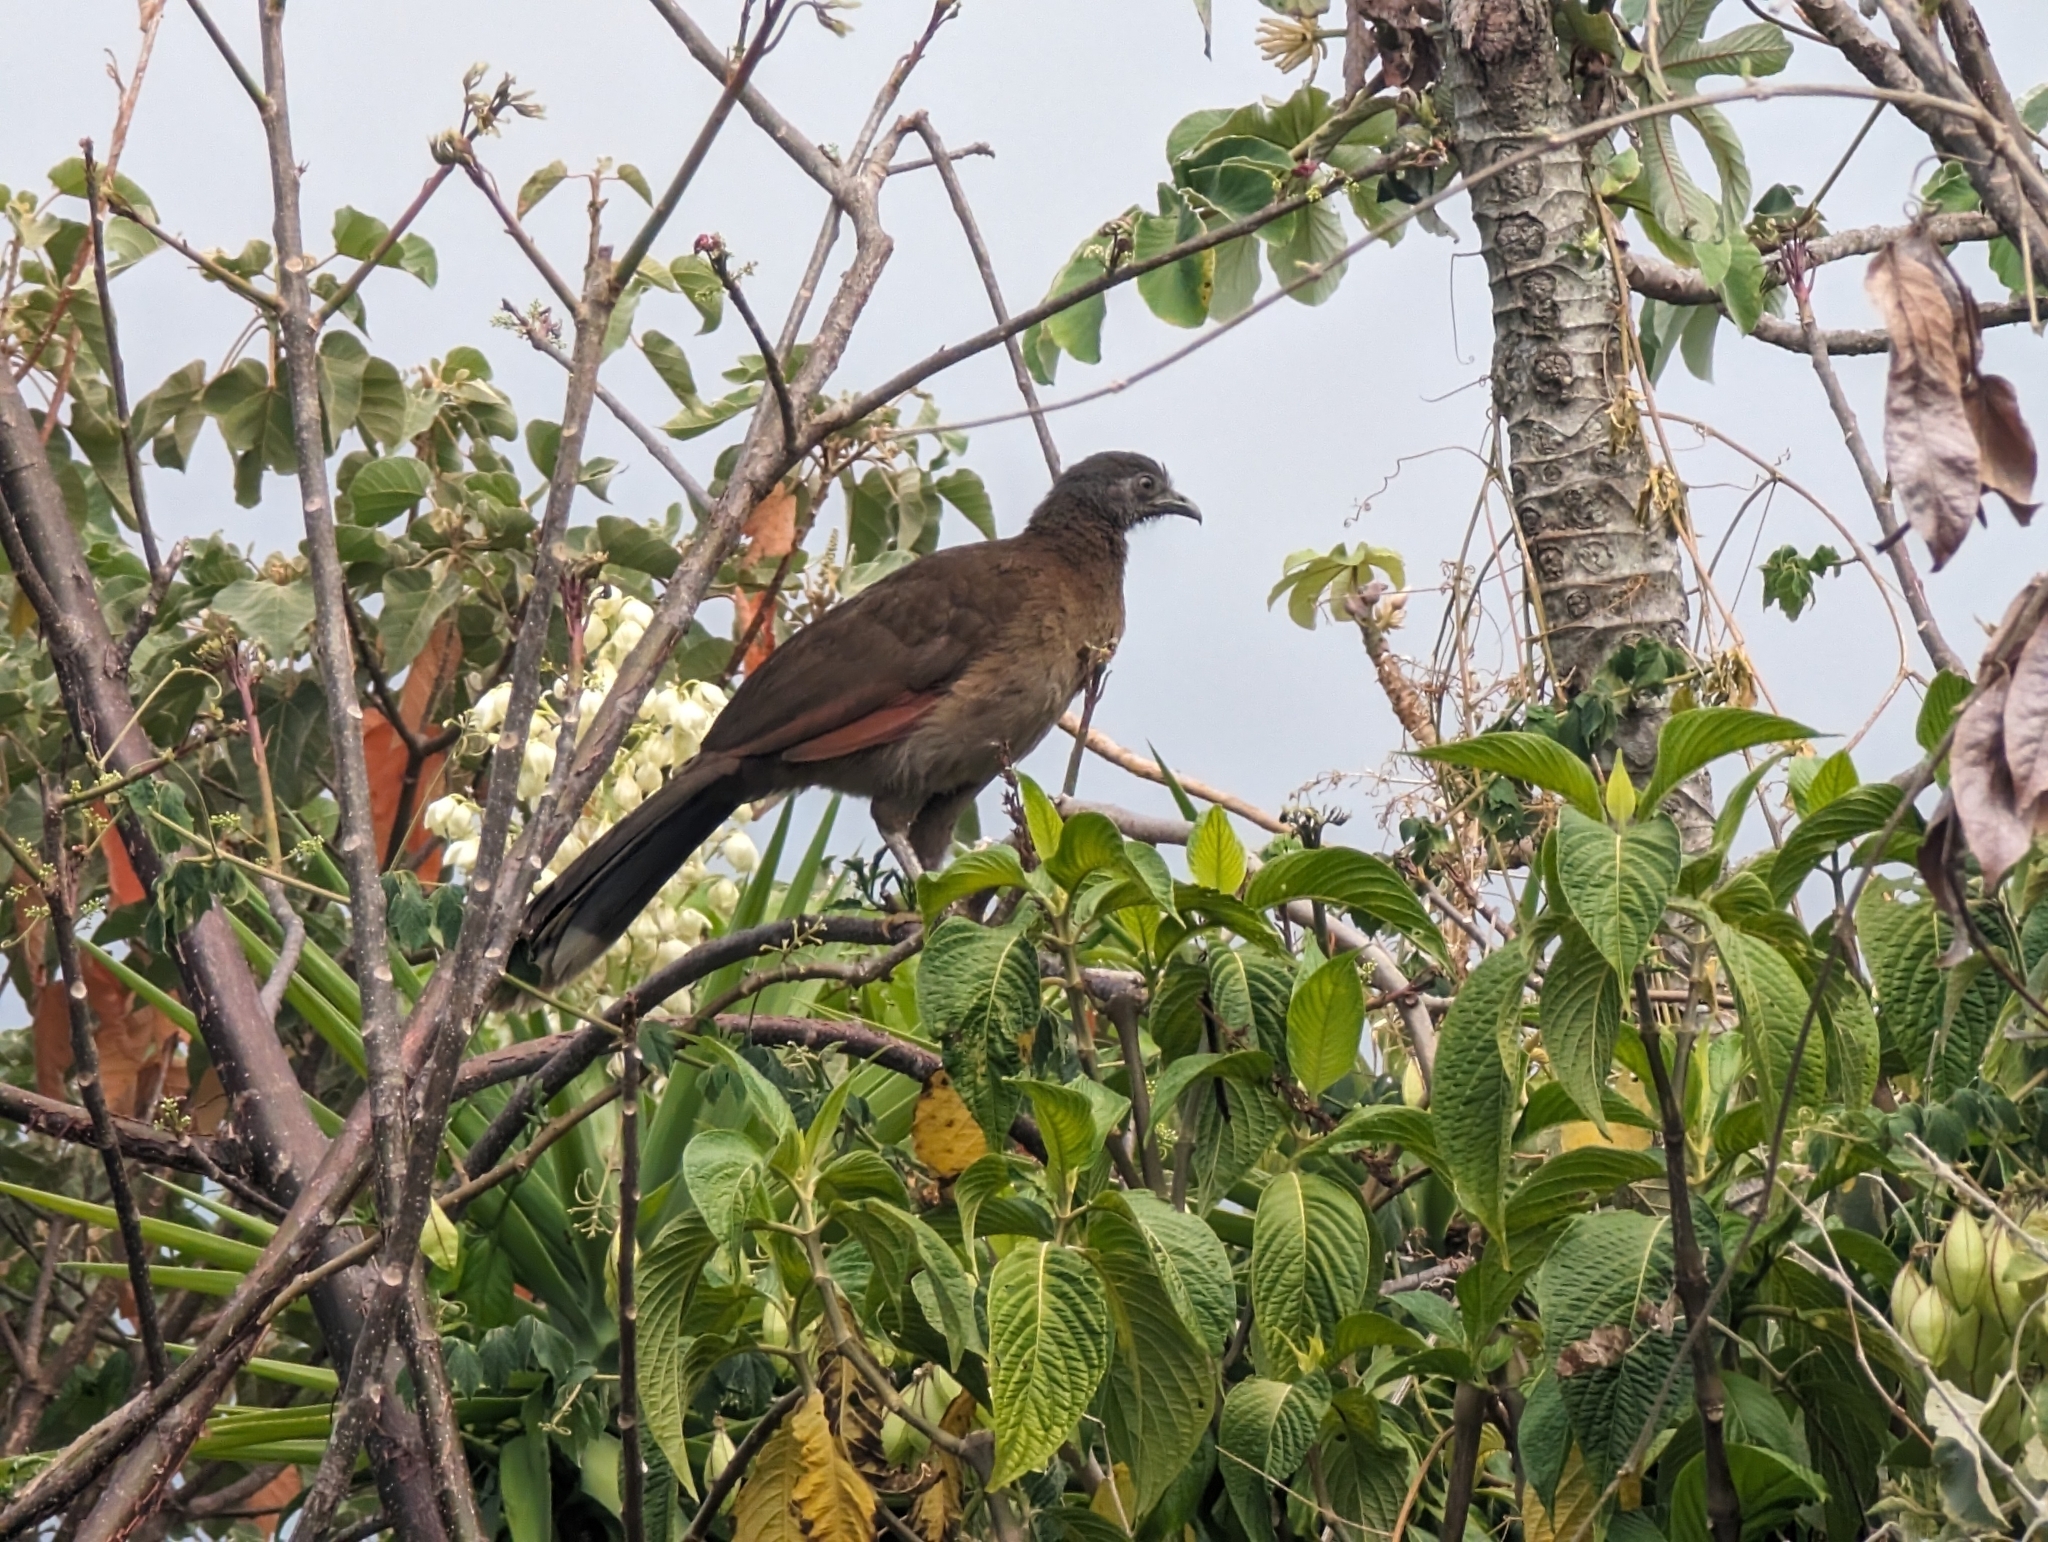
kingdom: Animalia
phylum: Chordata
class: Aves
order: Galliformes
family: Cracidae
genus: Ortalis
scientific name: Ortalis cinereiceps
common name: Grey-headed chachalaca
